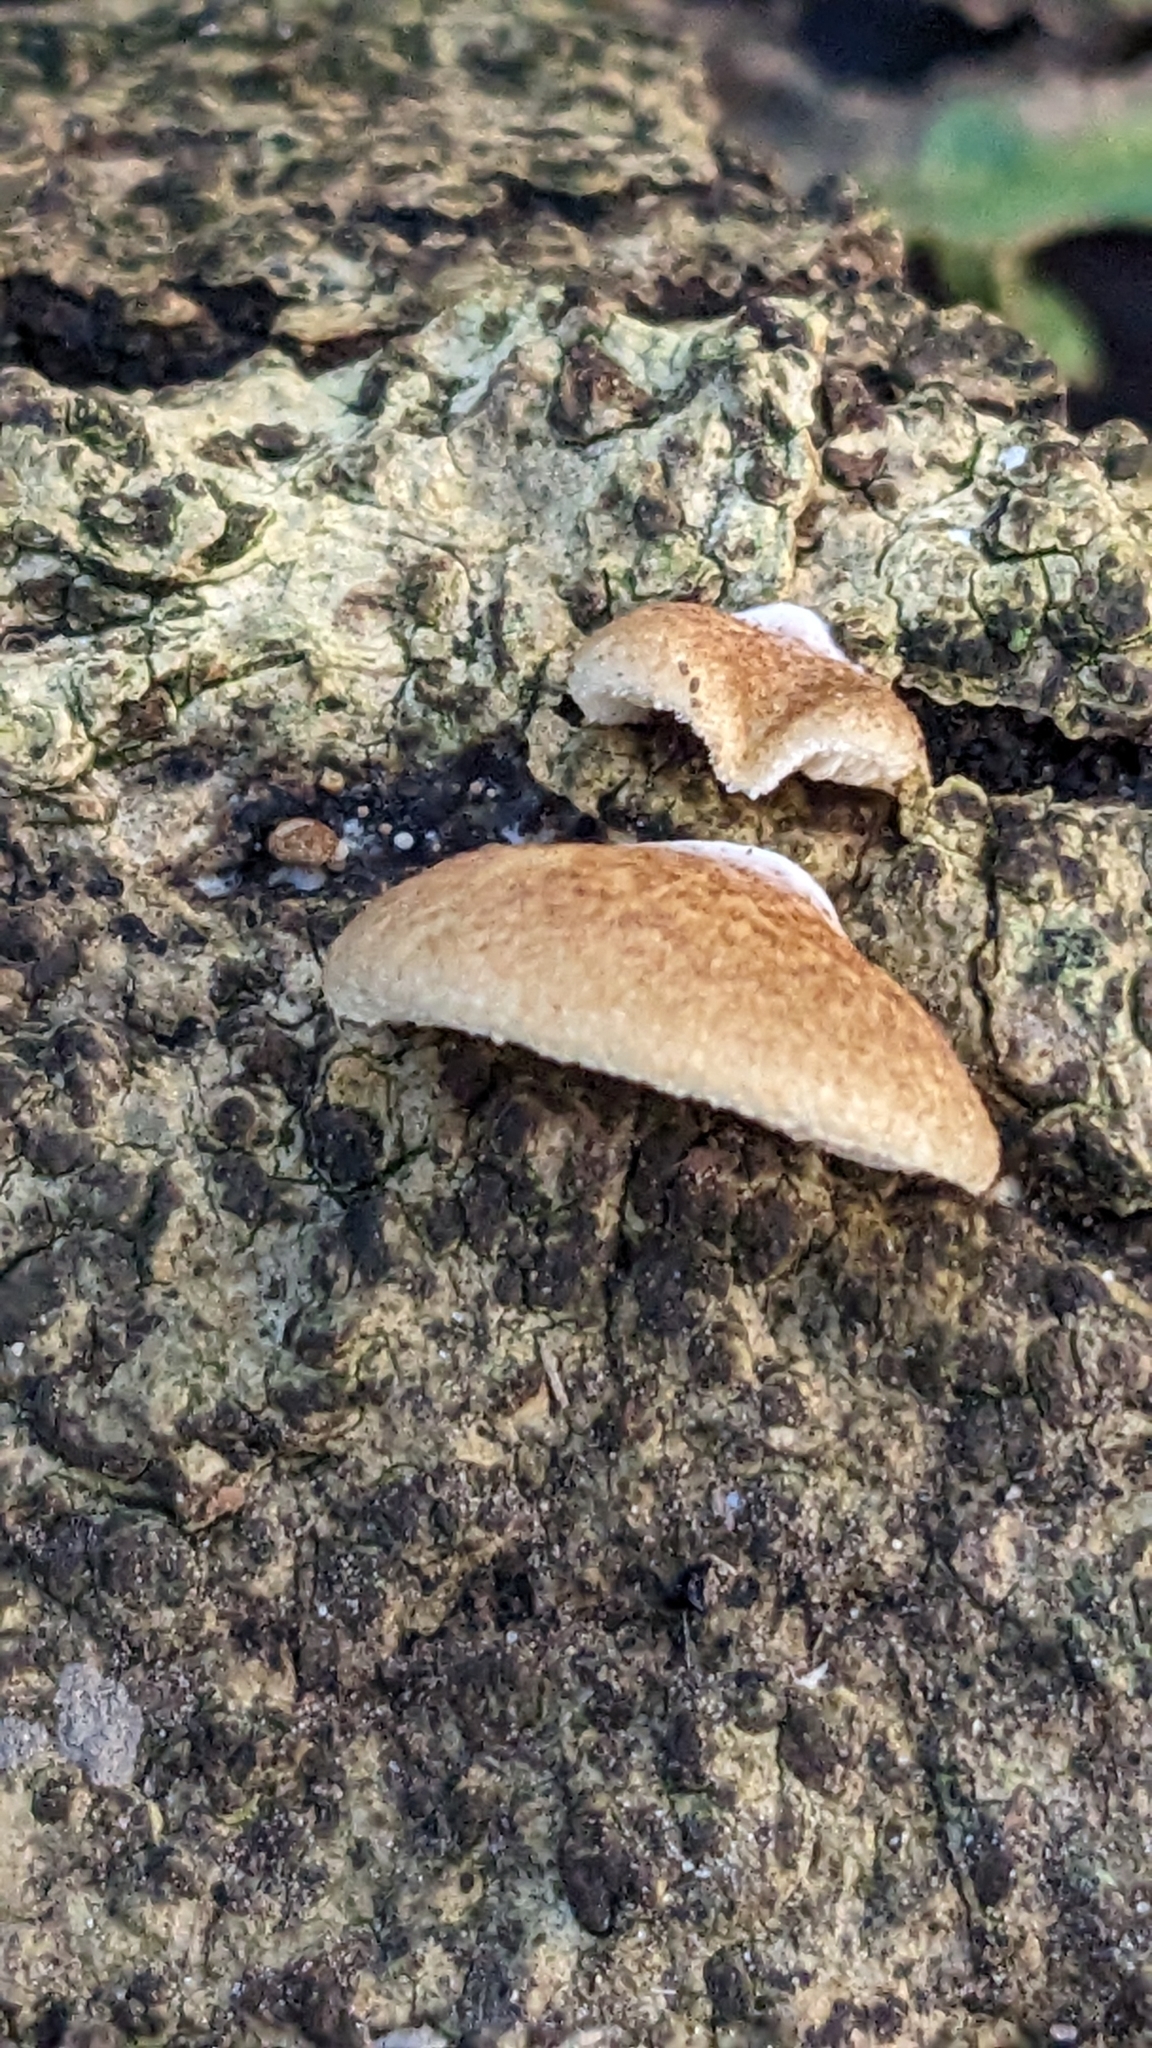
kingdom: Fungi
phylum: Basidiomycota
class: Agaricomycetes
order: Agaricales
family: Crepidotaceae
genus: Crepidotus
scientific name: Crepidotus calolepis
